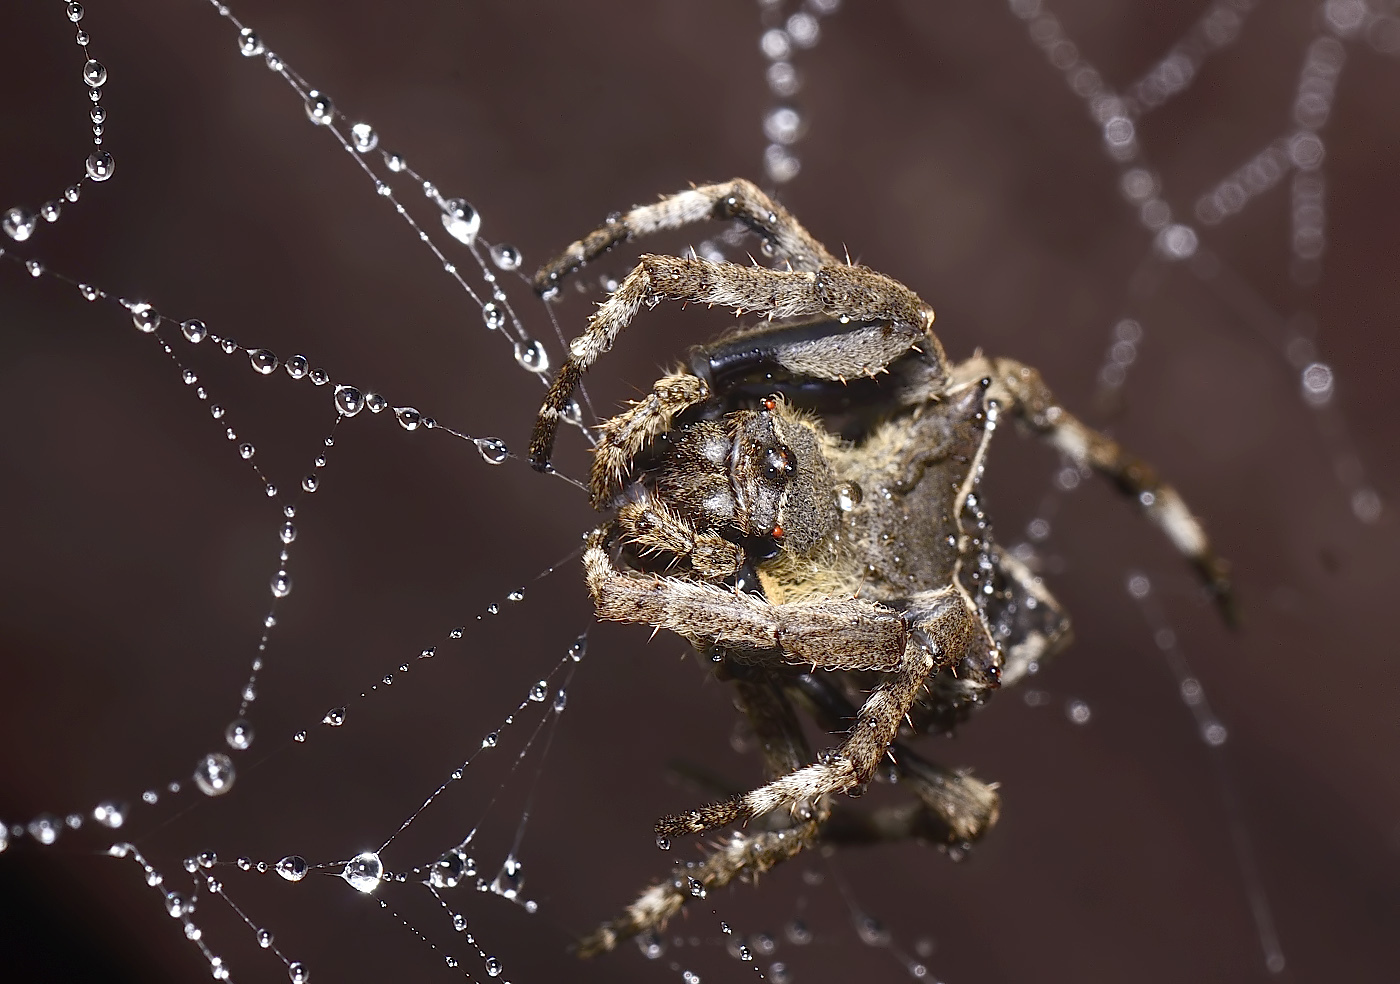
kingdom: Animalia
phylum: Arthropoda
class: Arachnida
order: Araneae
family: Araneidae
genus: Parawixia
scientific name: Parawixia dehaani
